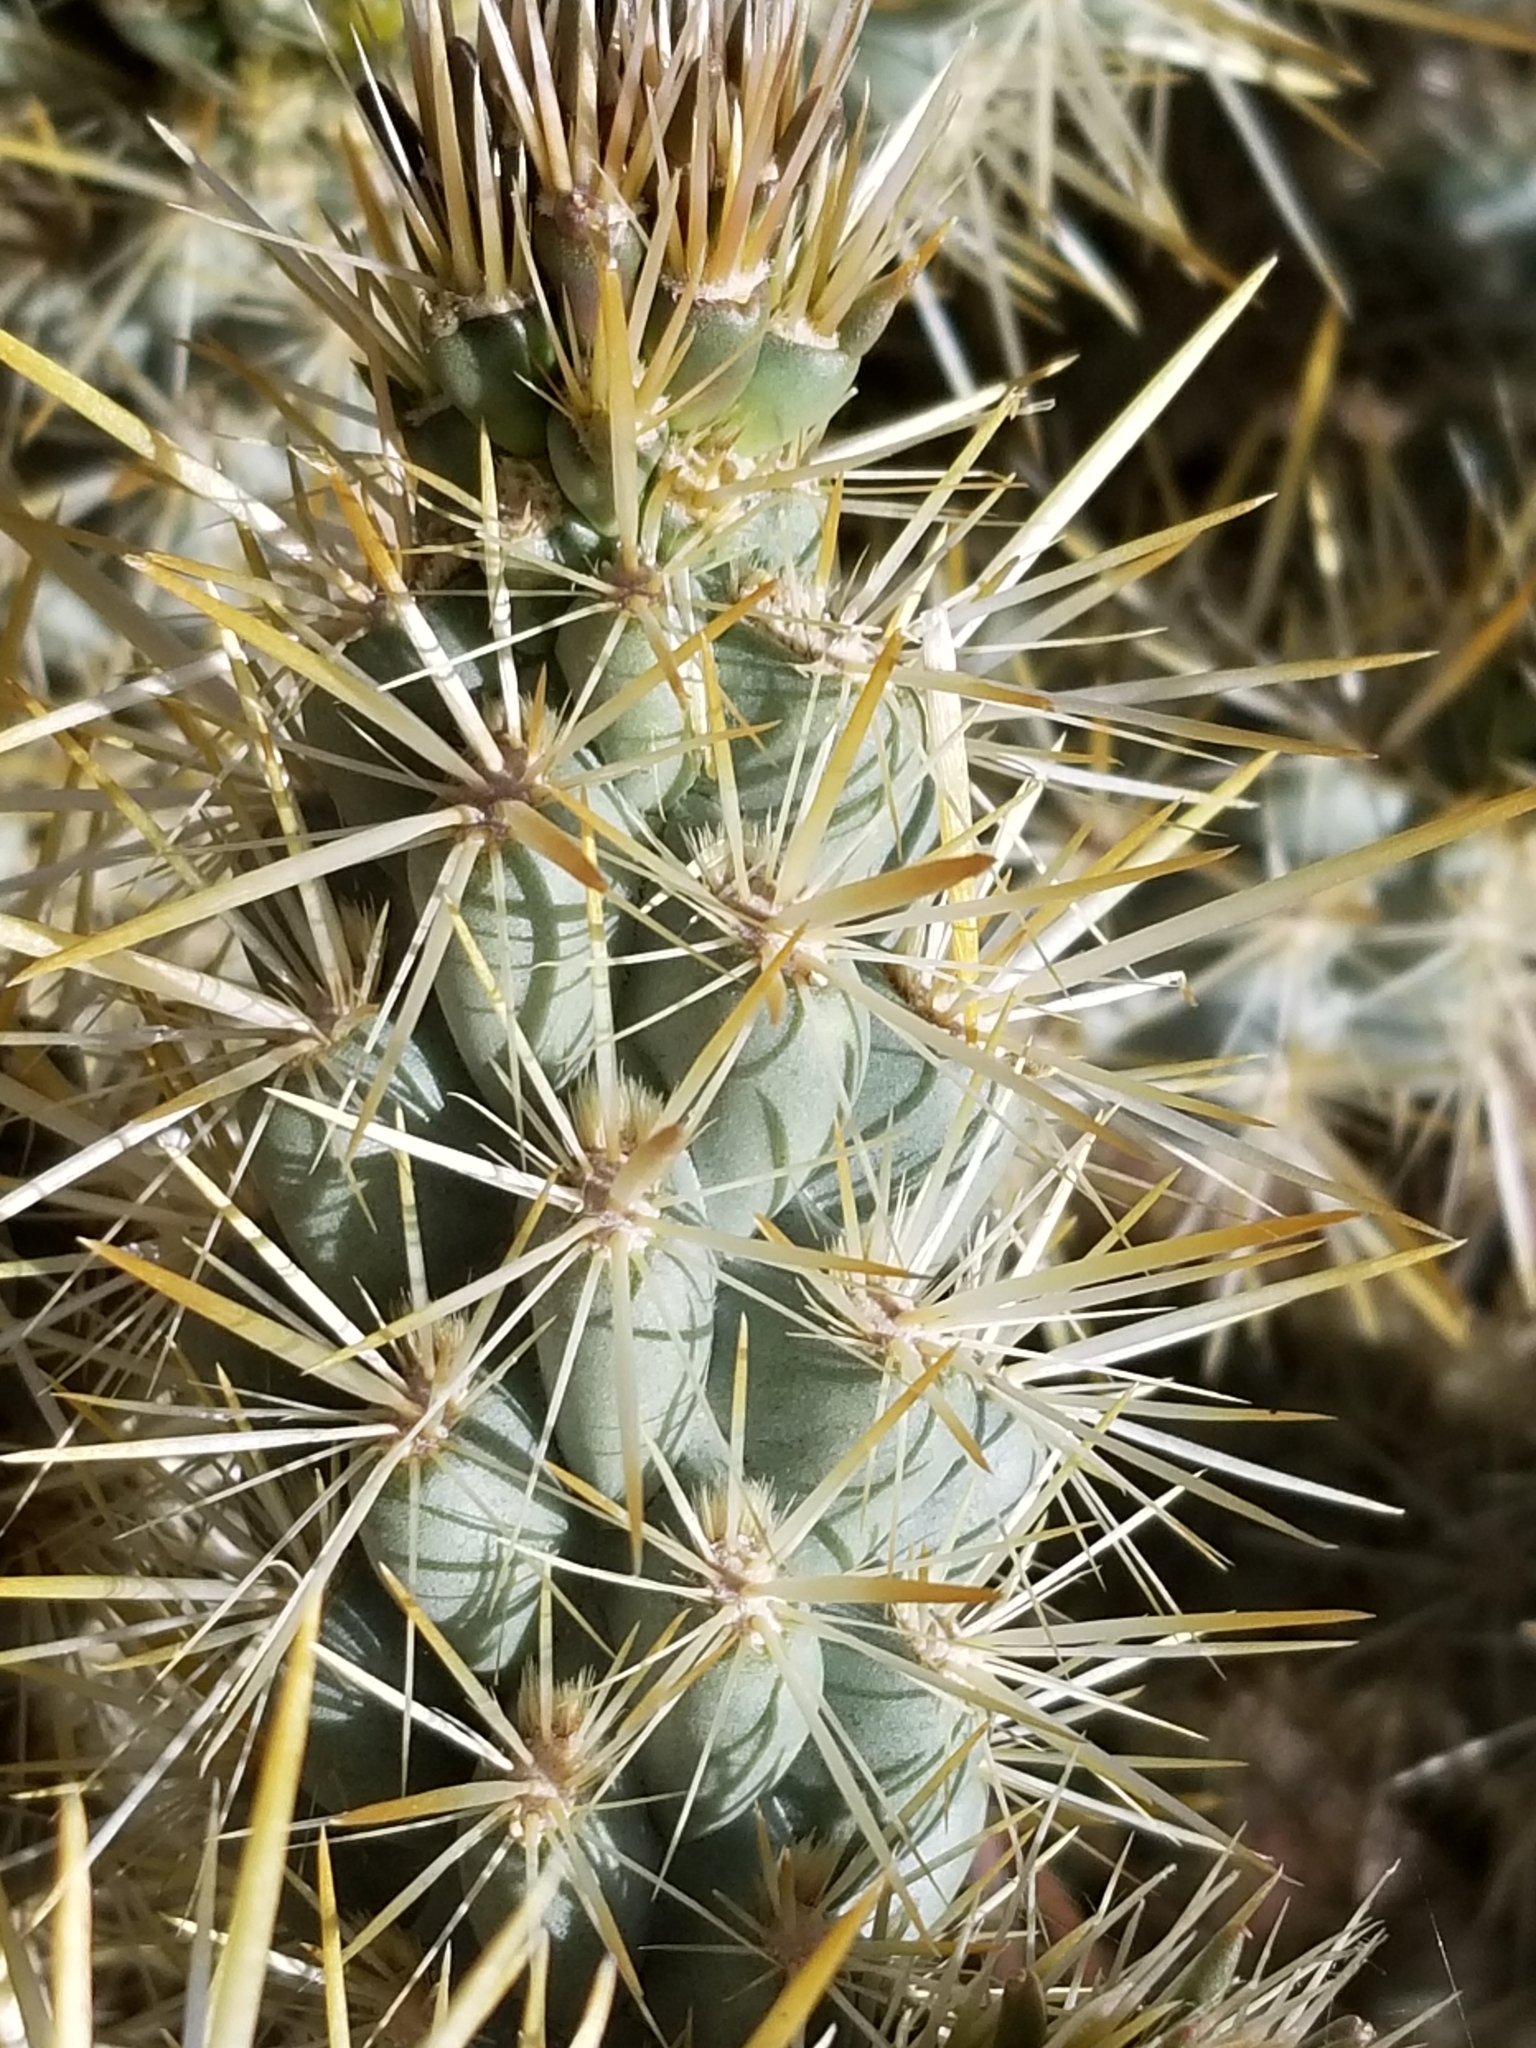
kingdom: Plantae
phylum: Tracheophyta
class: Magnoliopsida
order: Caryophyllales
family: Cactaceae
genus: Cylindropuntia
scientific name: Cylindropuntia echinocarpa
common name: Ground cholla
